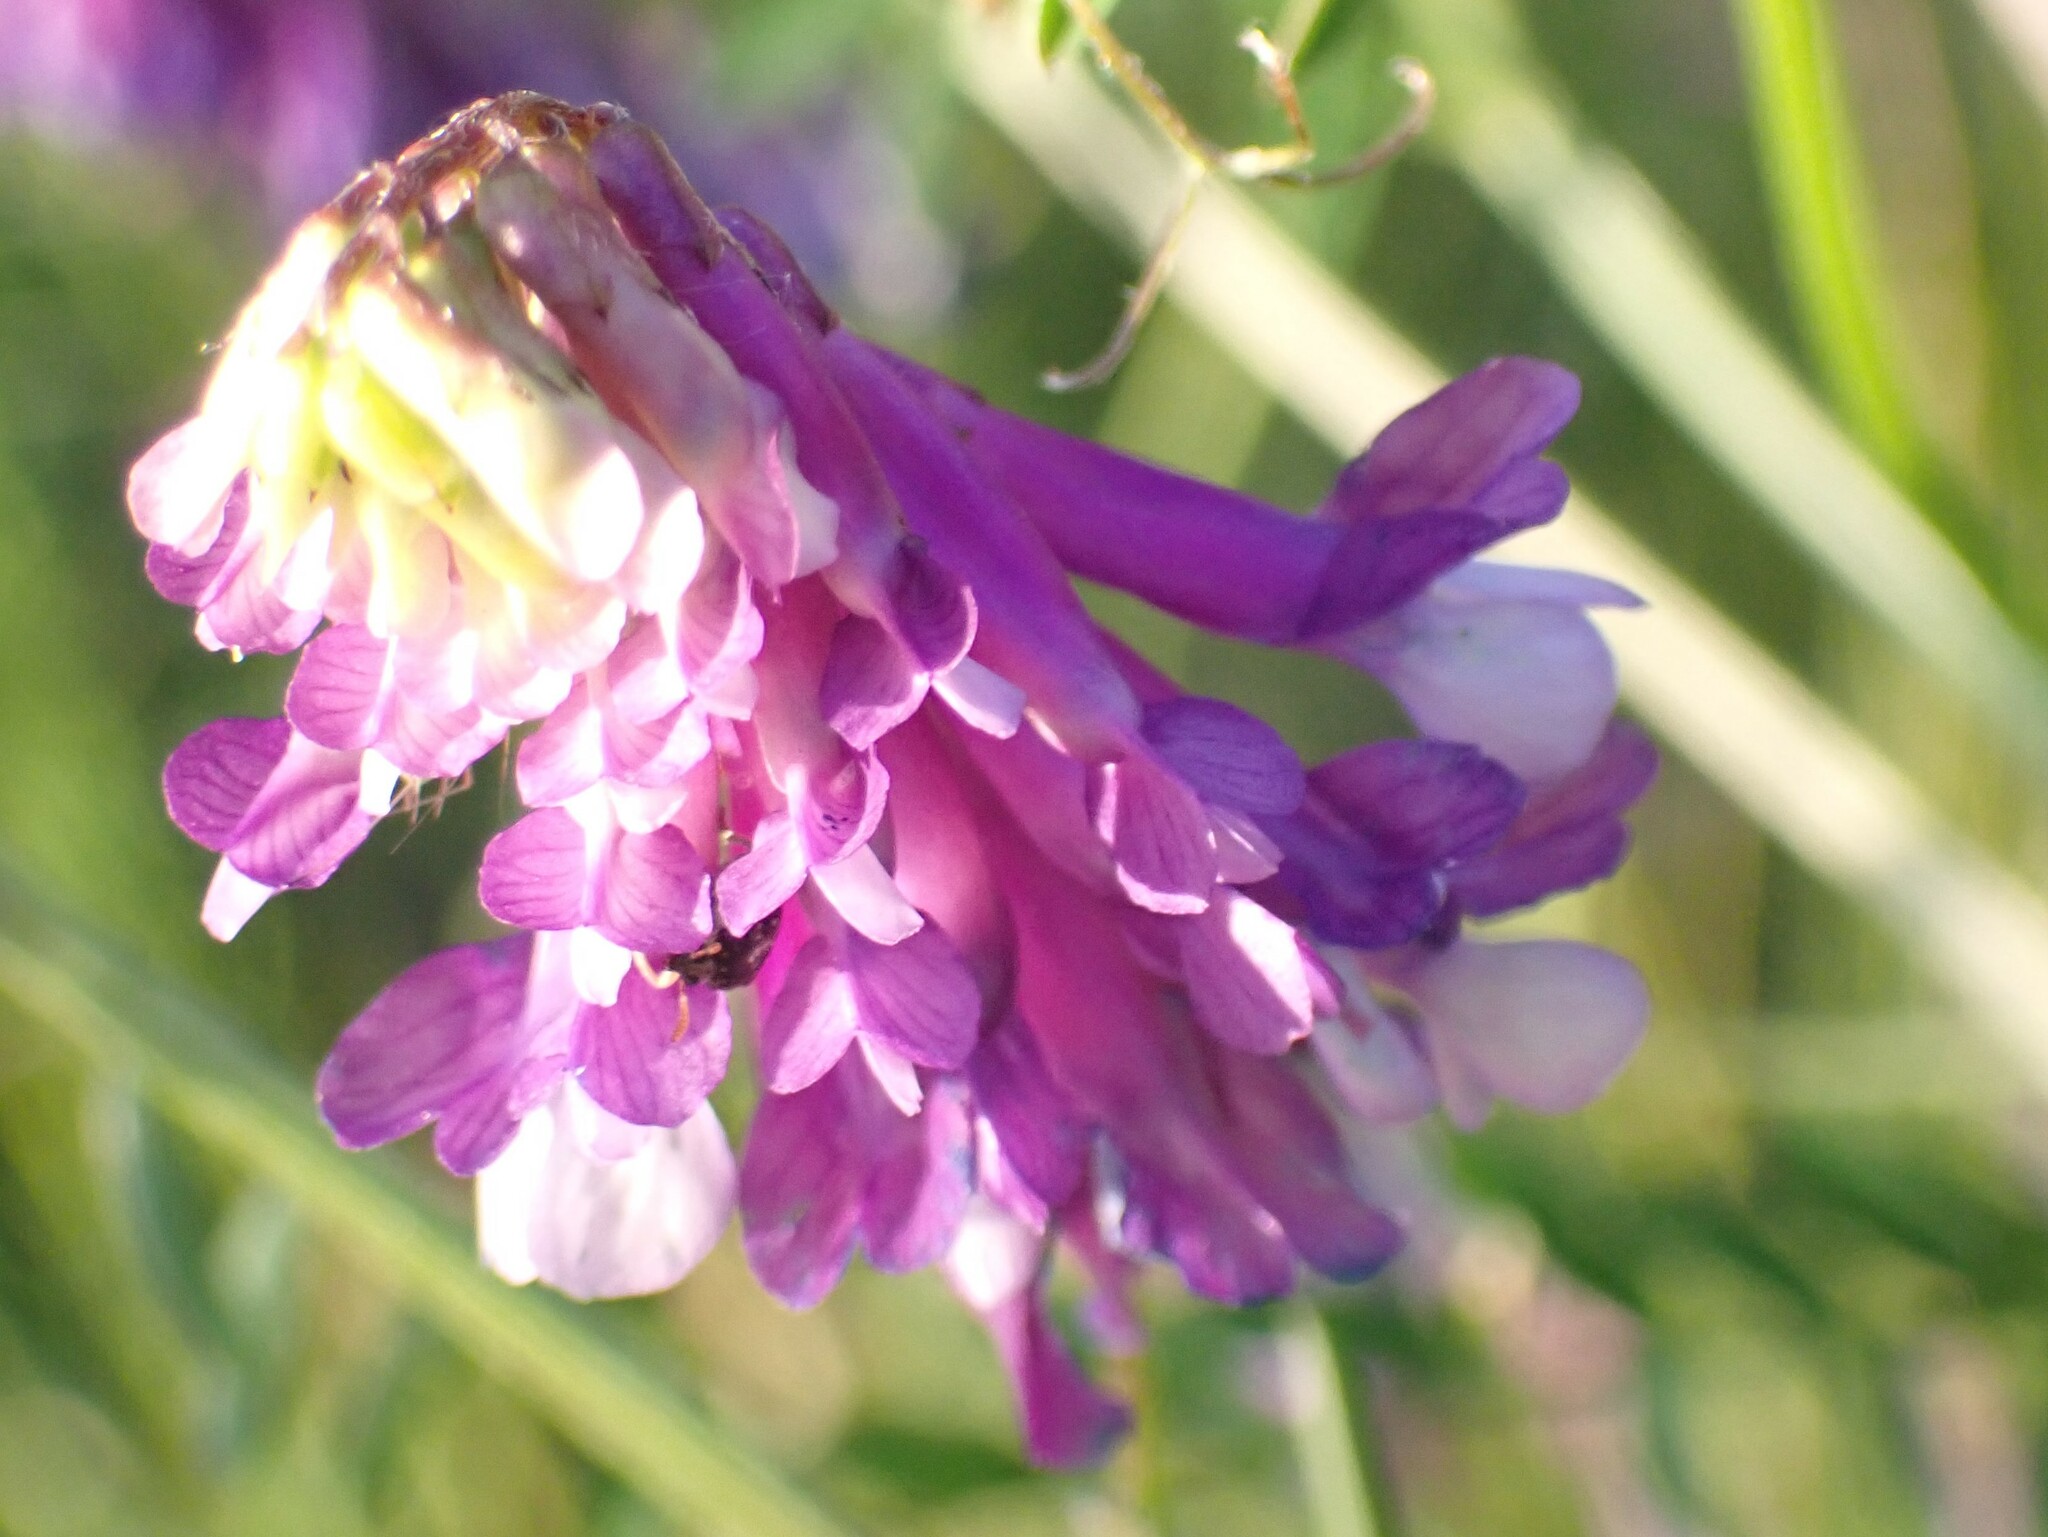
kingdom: Plantae
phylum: Tracheophyta
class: Magnoliopsida
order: Fabales
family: Fabaceae
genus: Vicia
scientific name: Vicia villosa
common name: Fodder vetch
